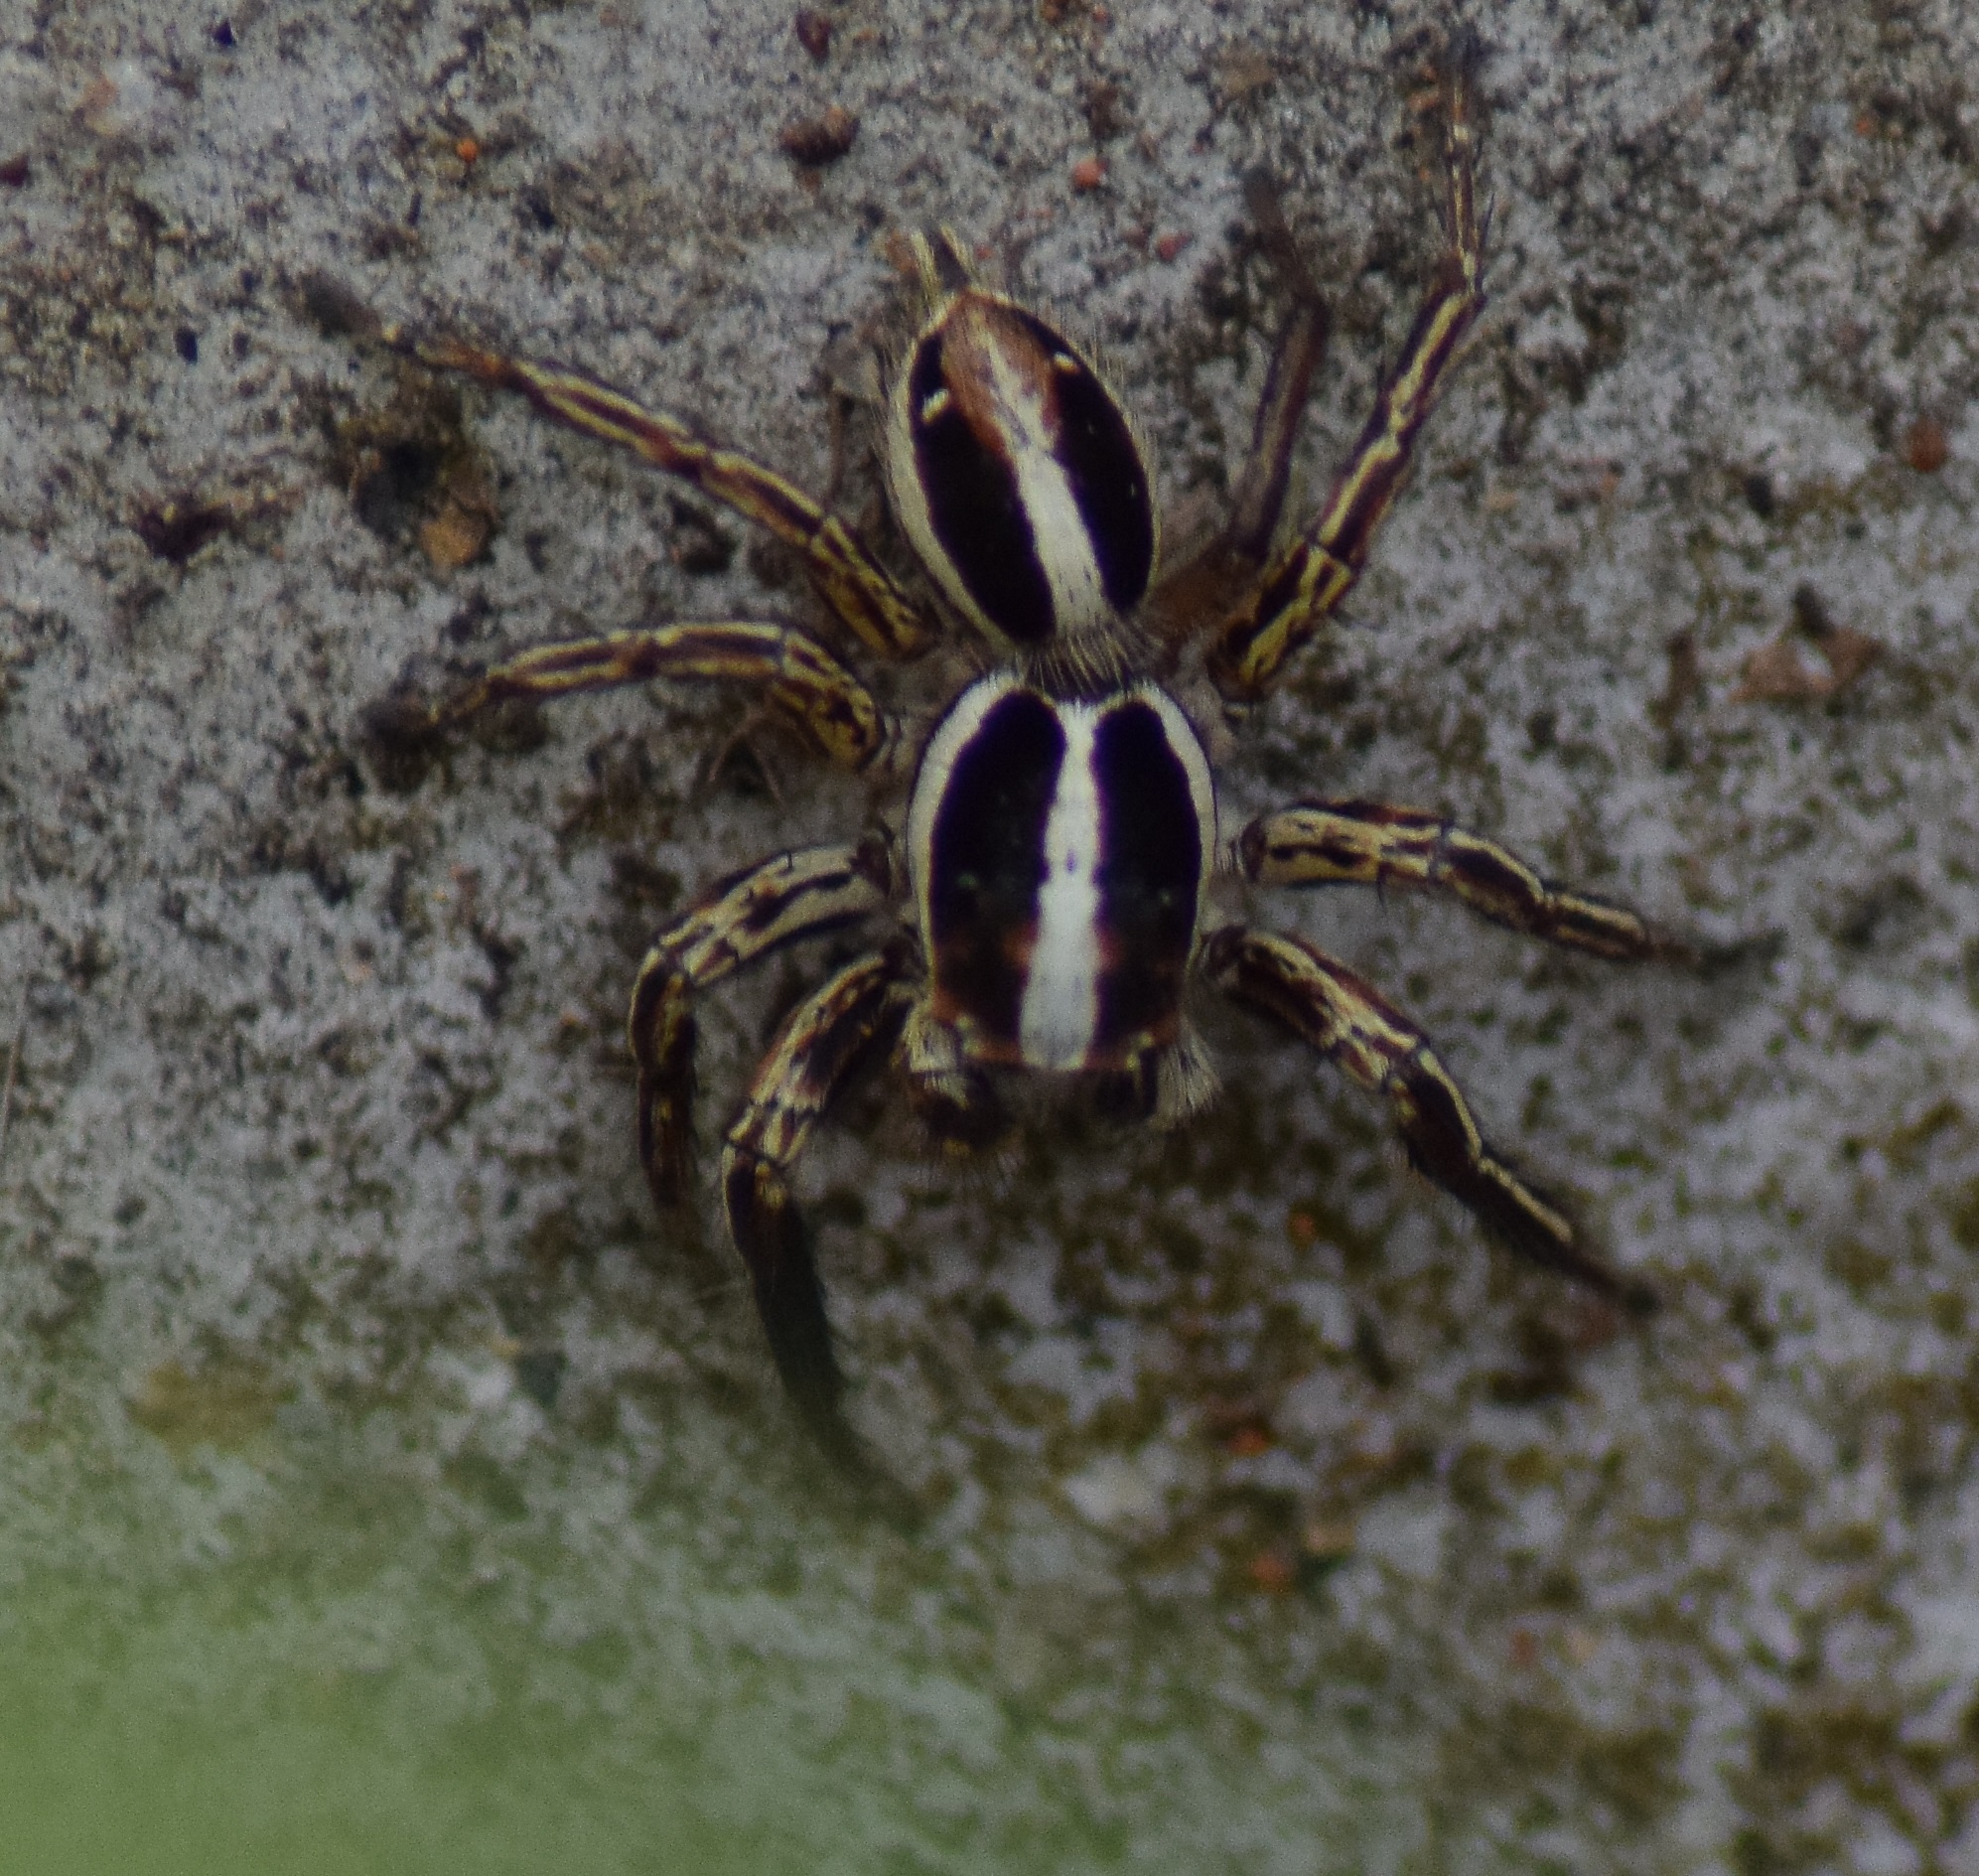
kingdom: Animalia
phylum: Arthropoda
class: Arachnida
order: Araneae
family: Salticidae
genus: Plexippus
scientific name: Plexippus paykulli
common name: Pantropical jumper
